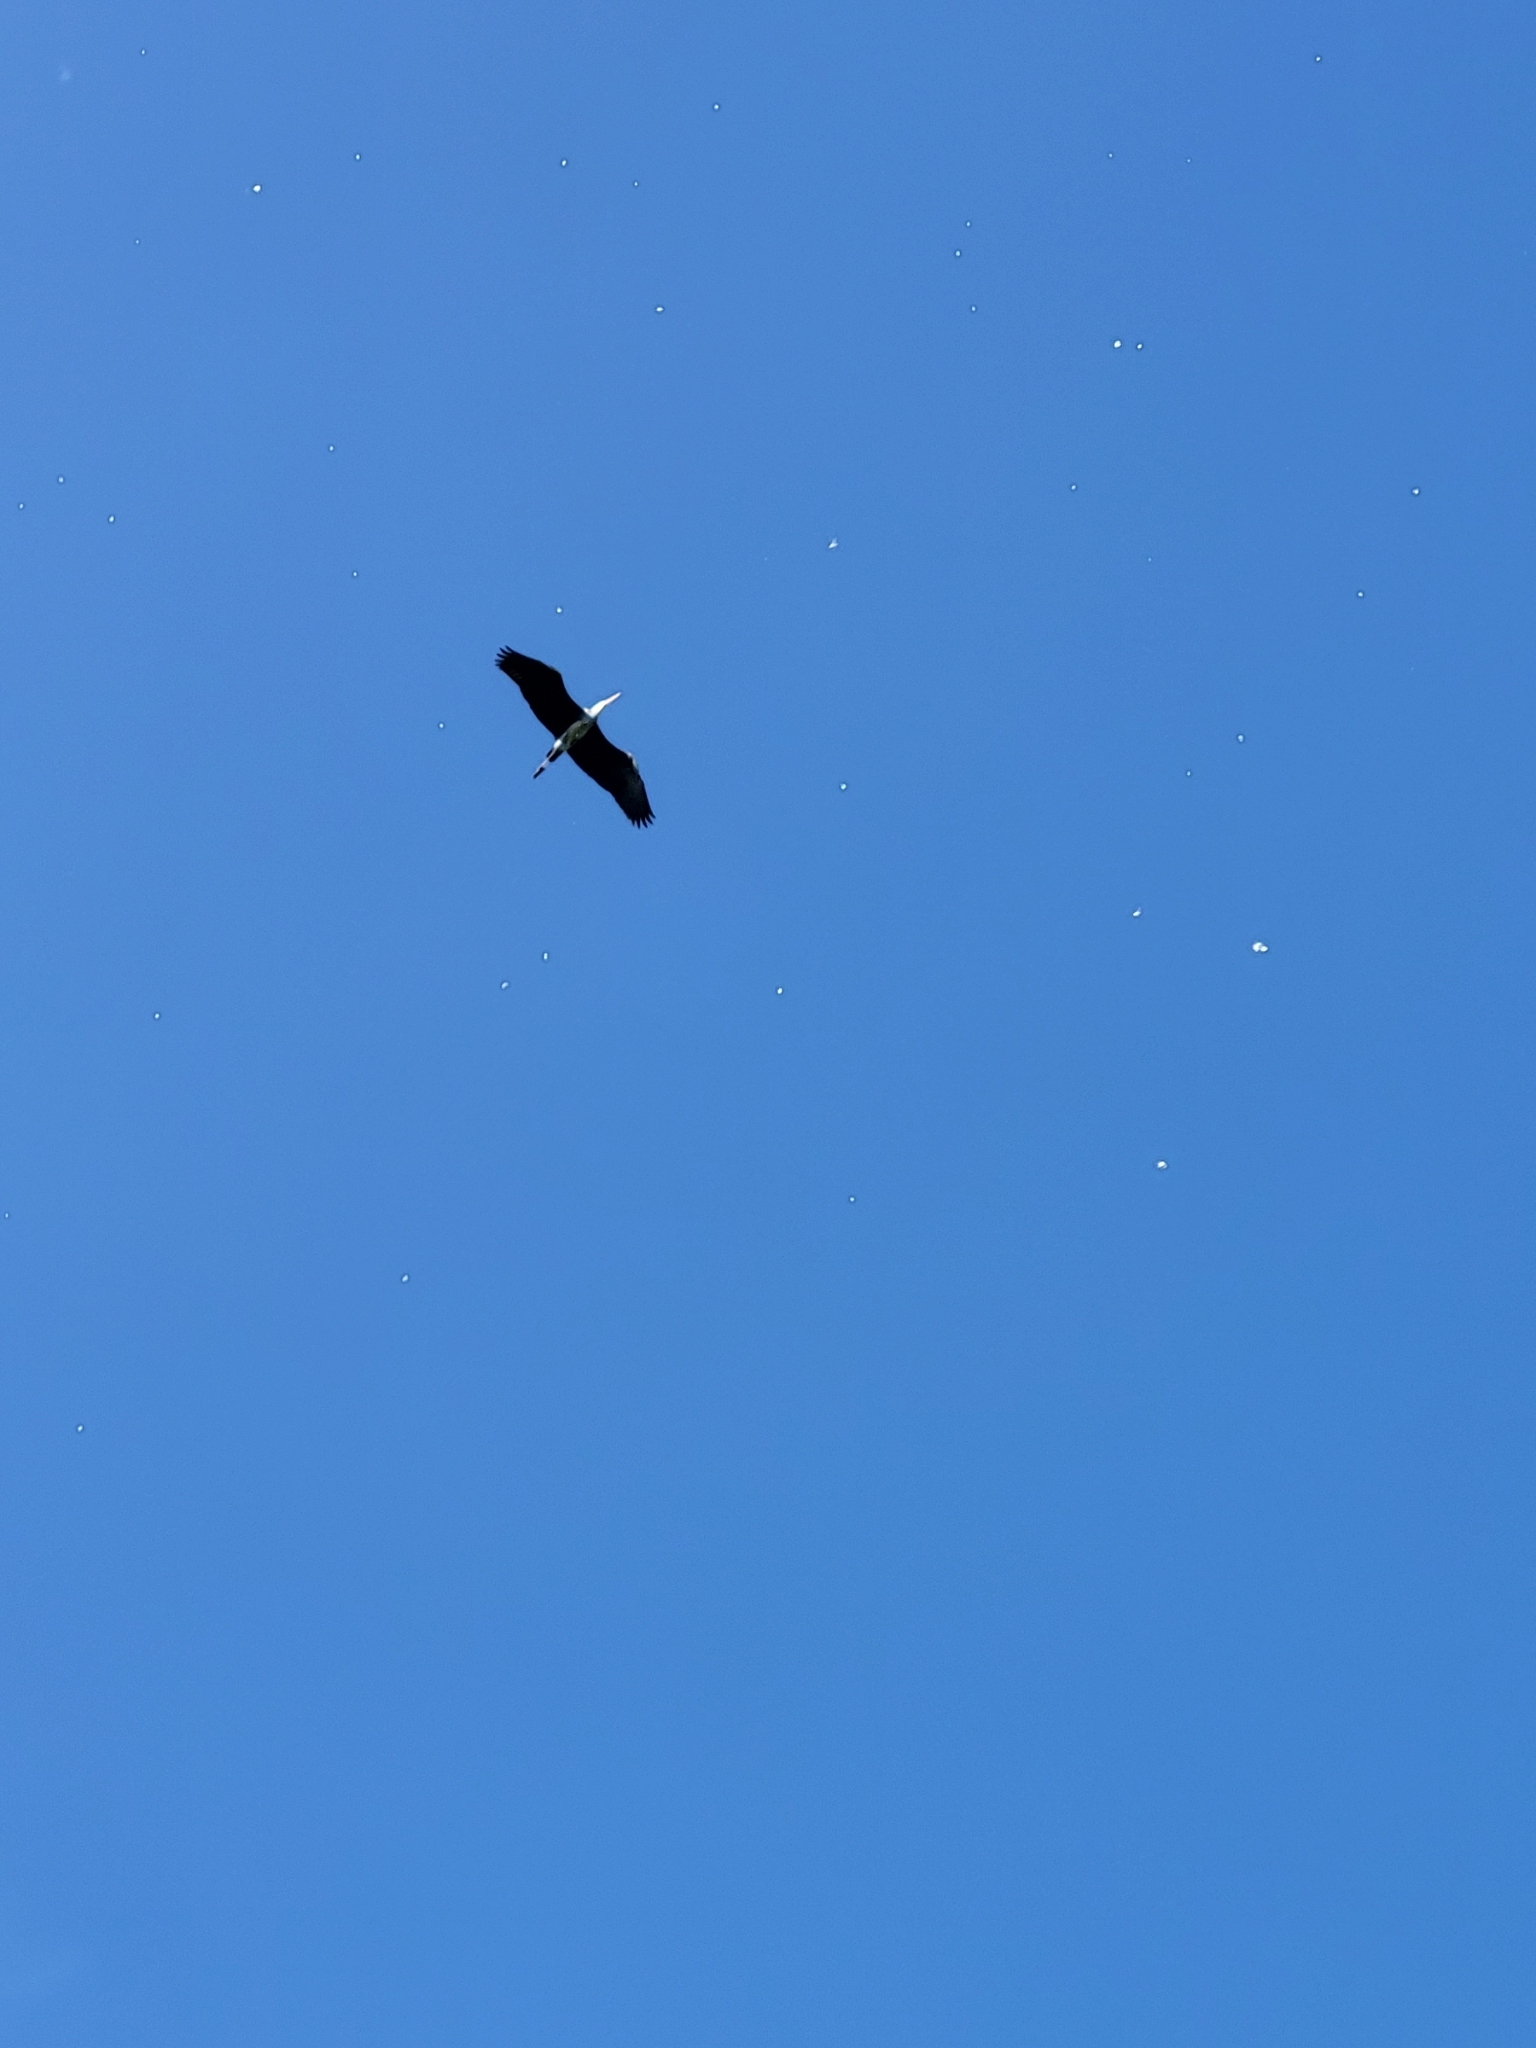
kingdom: Animalia
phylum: Chordata
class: Aves
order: Pelecaniformes
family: Ardeidae
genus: Ardea
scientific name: Ardea cinerea
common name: Grey heron
